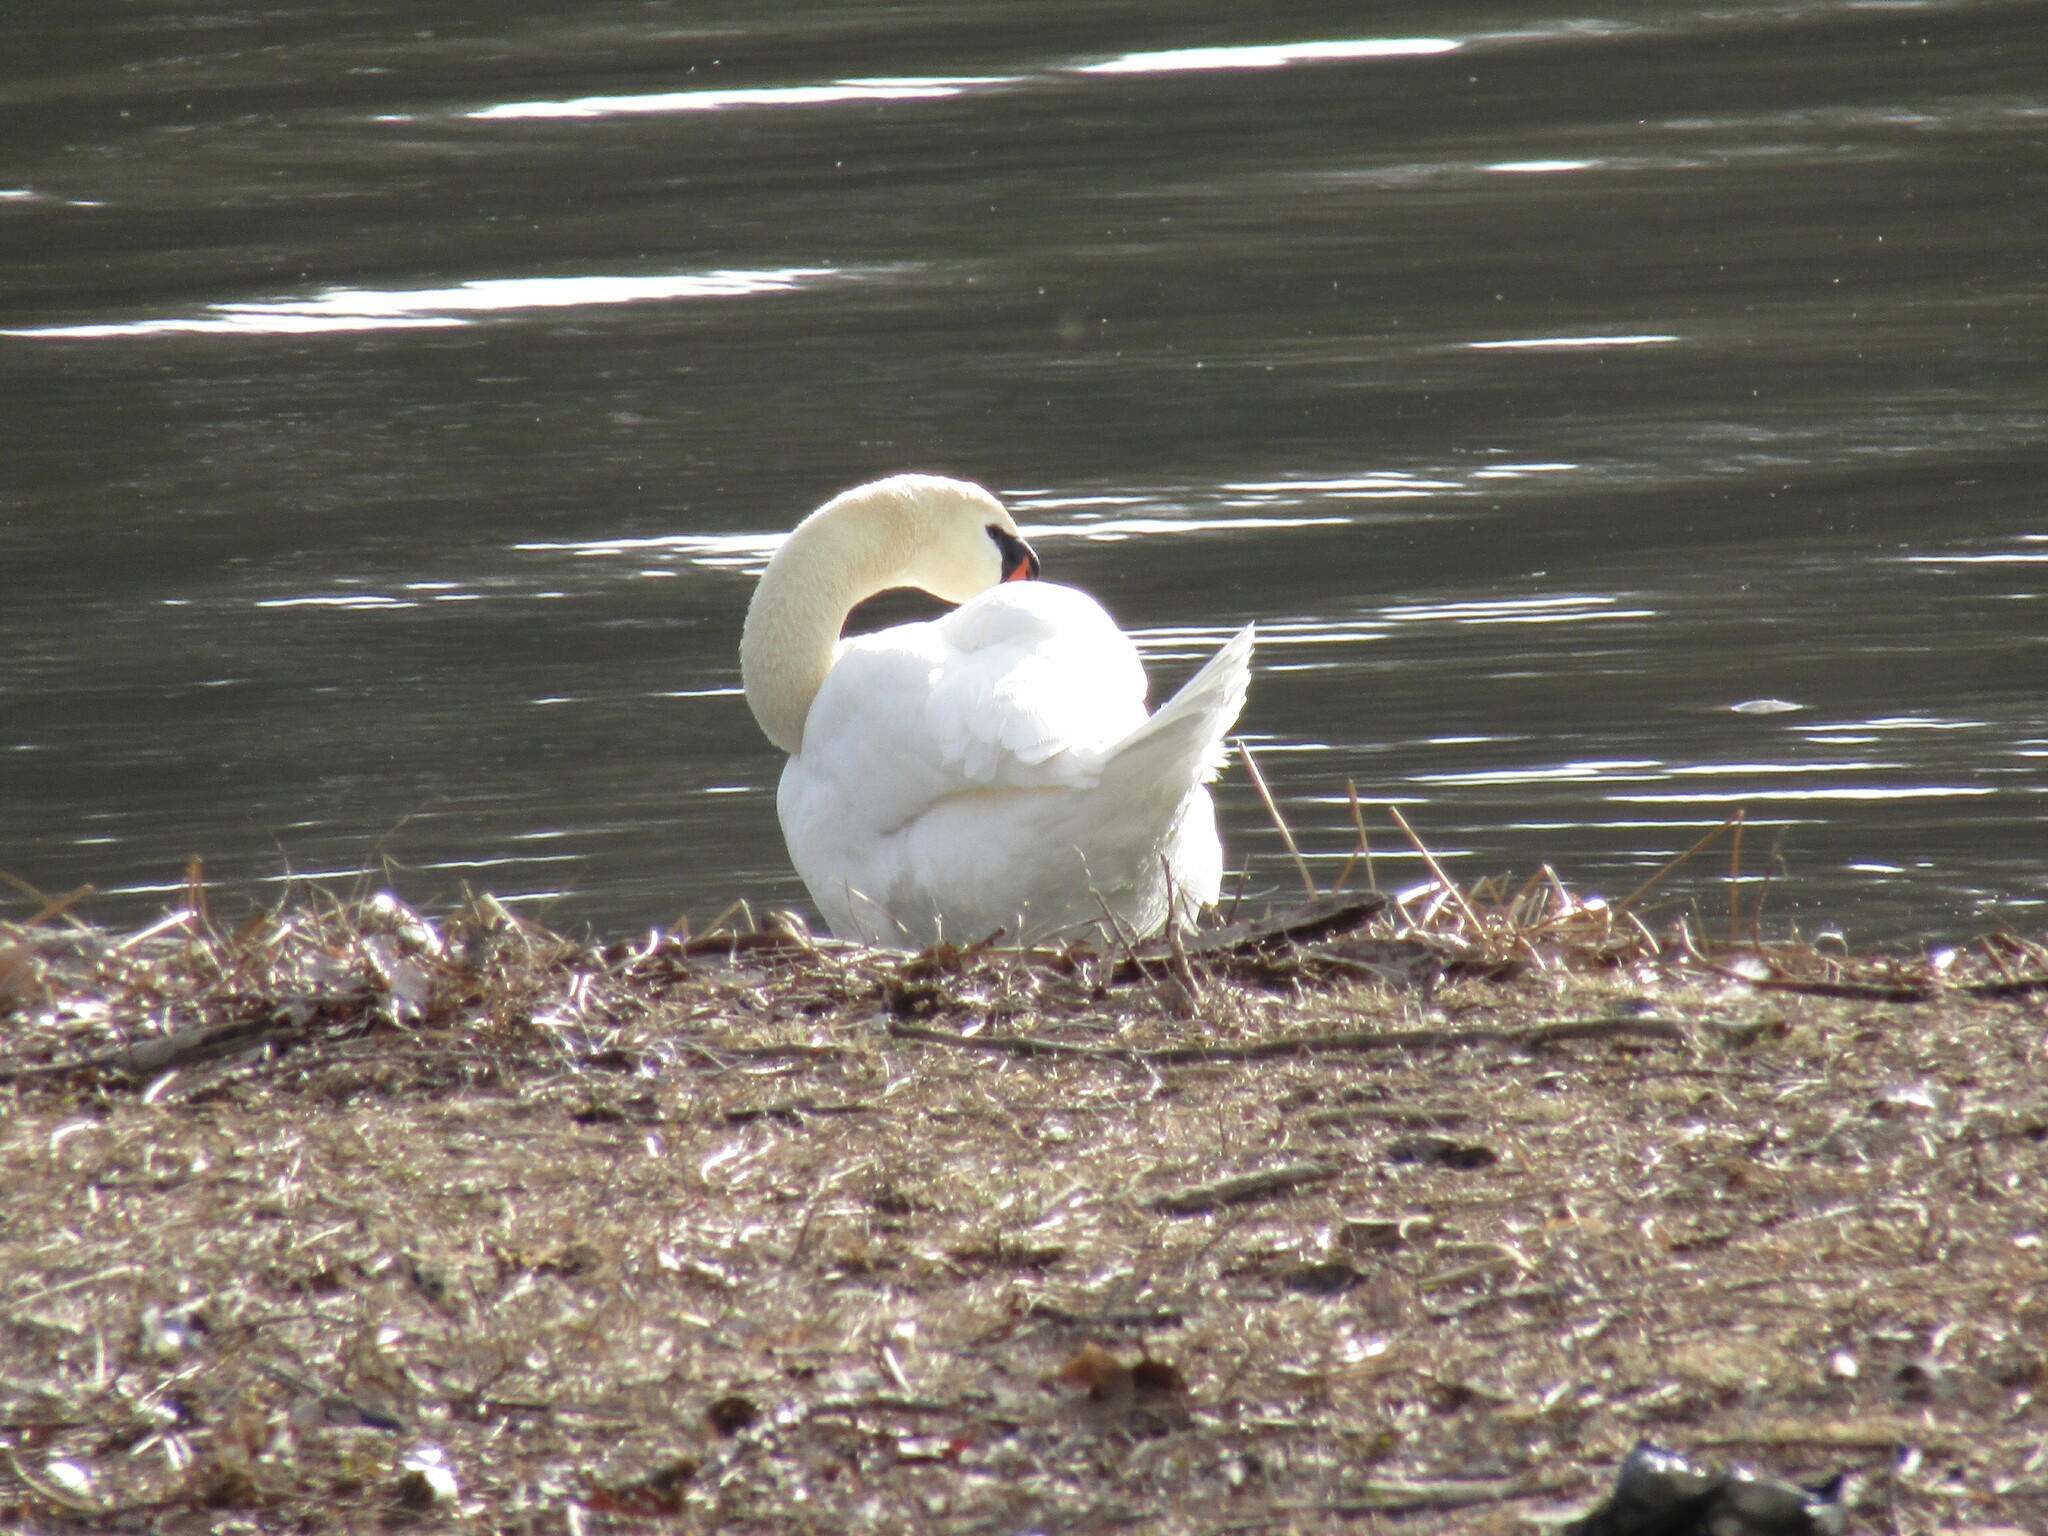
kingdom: Animalia
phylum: Chordata
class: Aves
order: Anseriformes
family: Anatidae
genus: Cygnus
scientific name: Cygnus olor
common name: Mute swan
